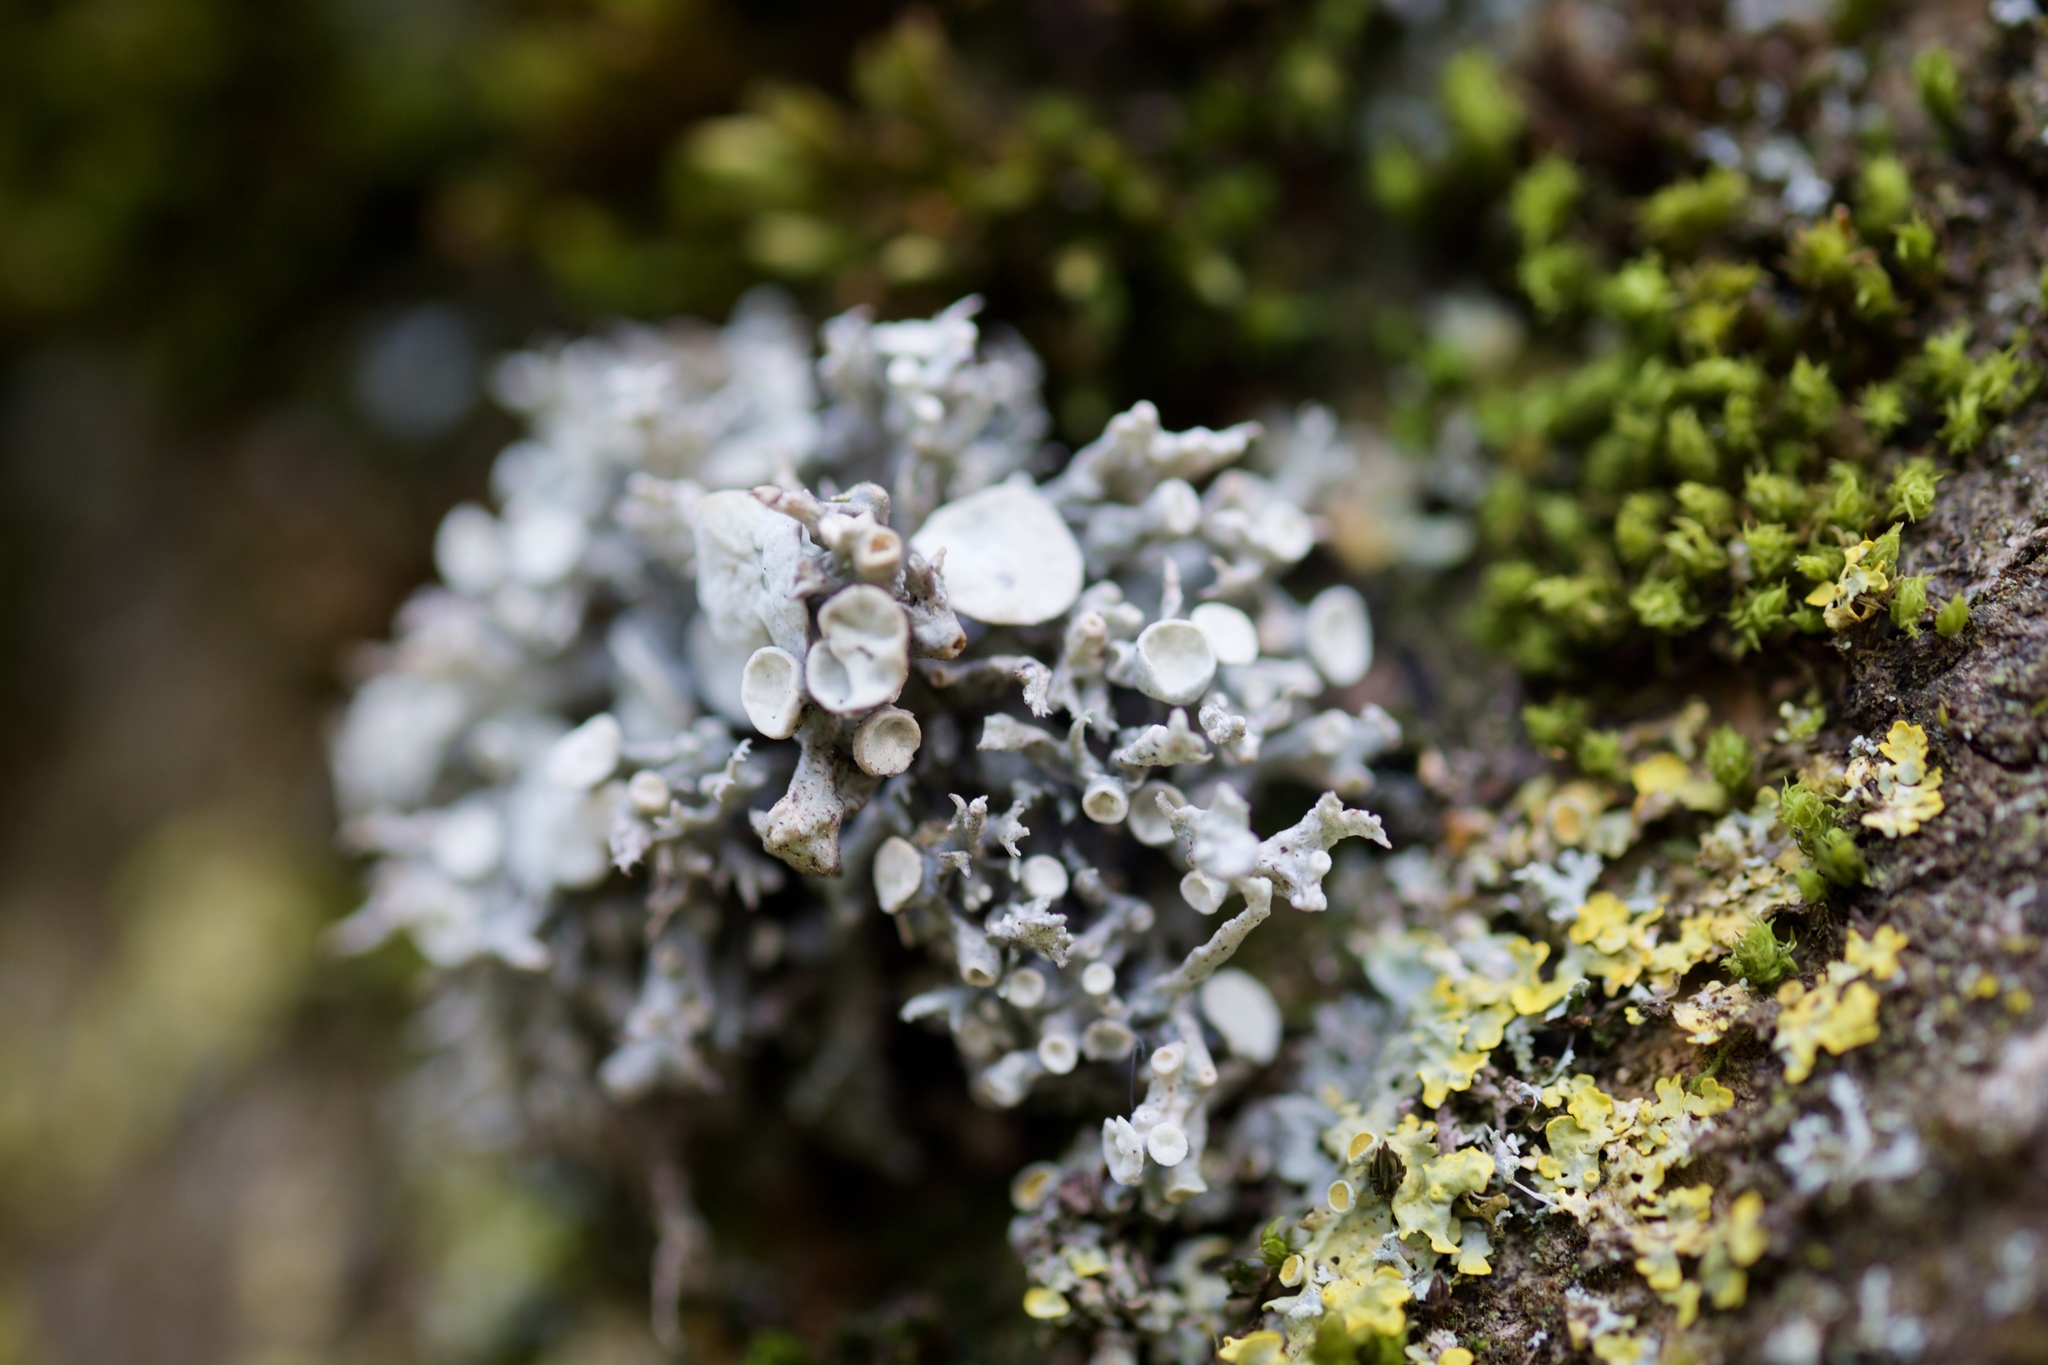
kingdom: Fungi
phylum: Ascomycota
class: Lecanoromycetes
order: Lecanorales
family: Ramalinaceae
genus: Ramalina
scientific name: Ramalina fastigiata
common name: Dotted ribbon lichen
